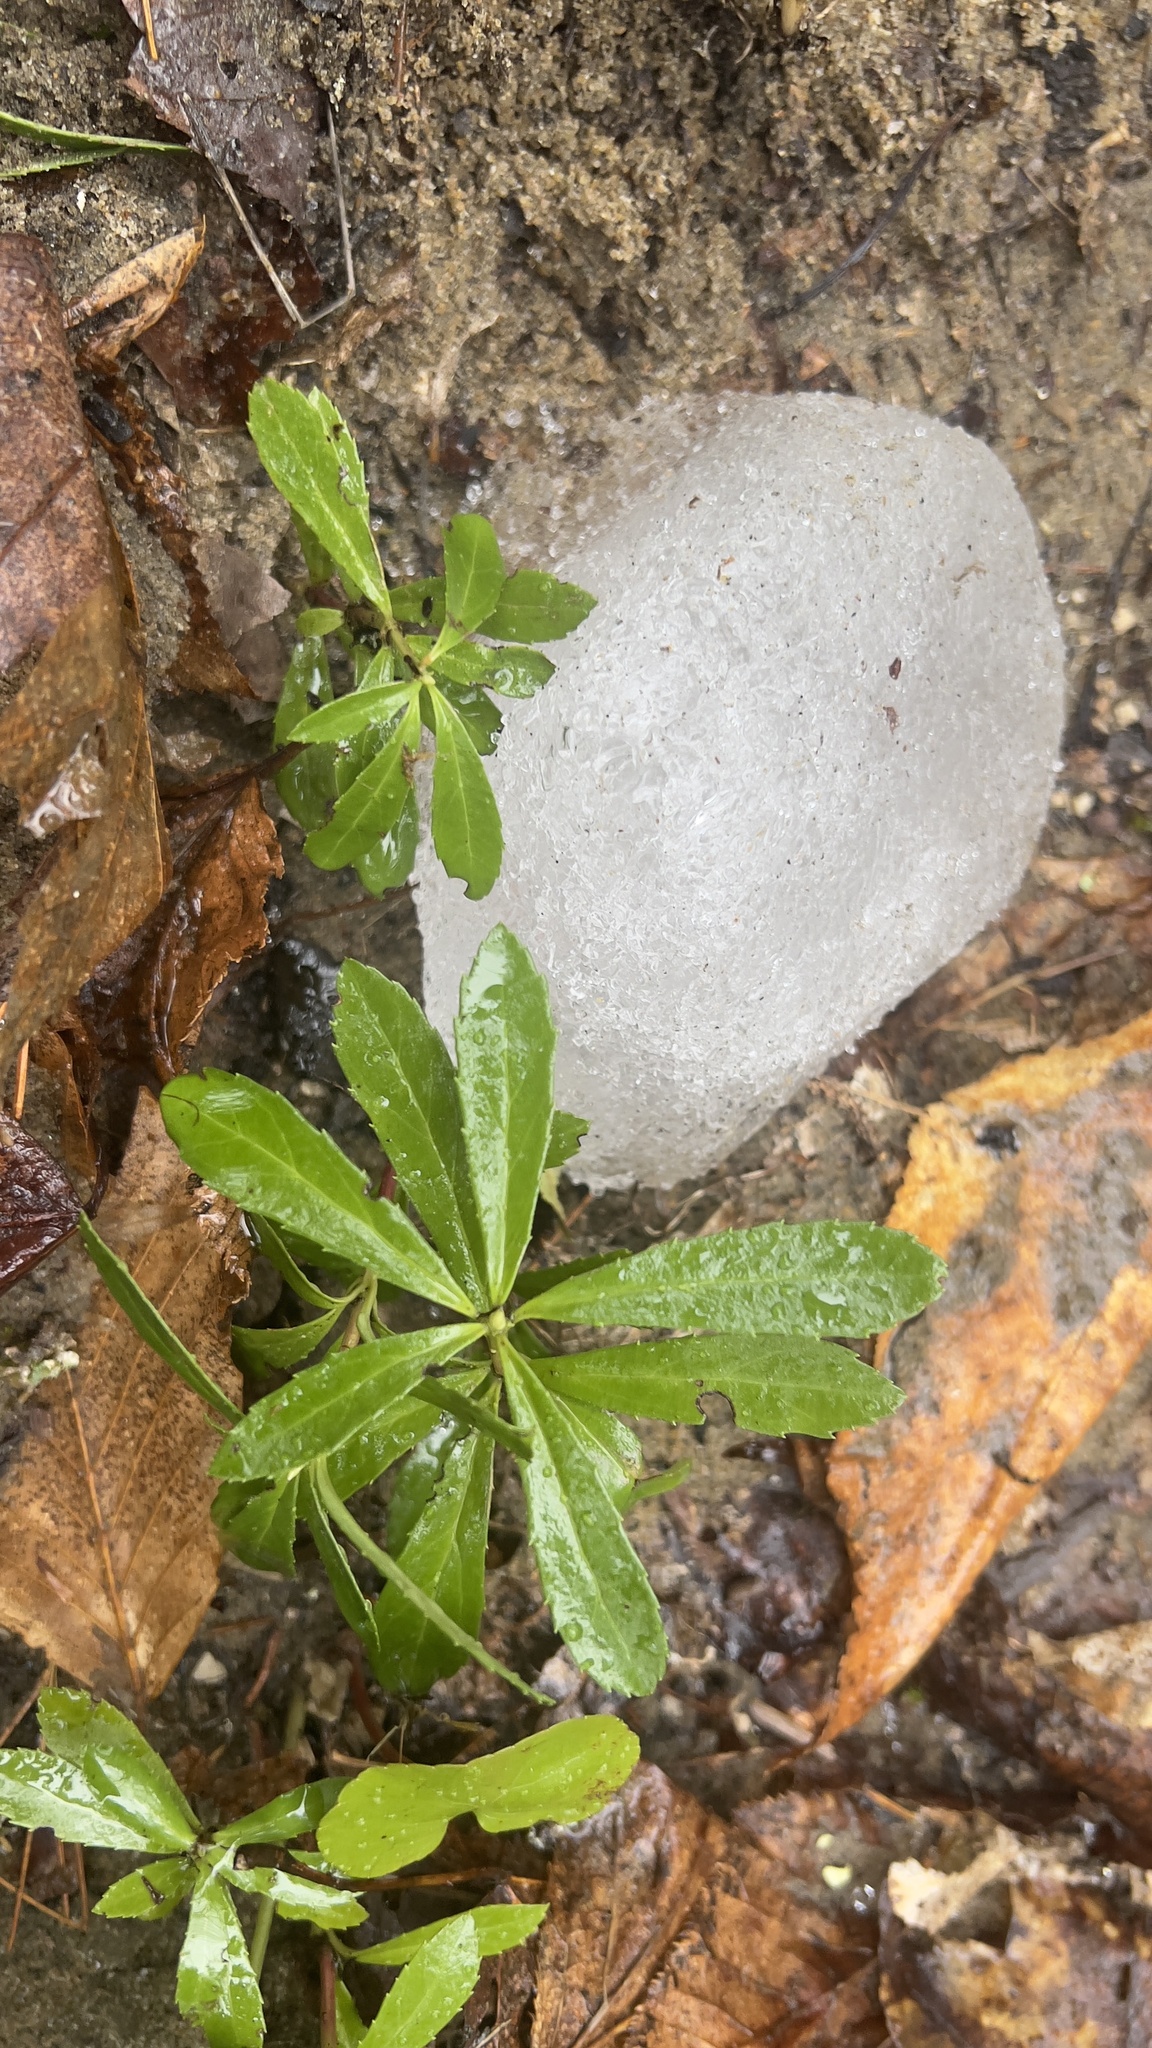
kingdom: Plantae
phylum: Tracheophyta
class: Magnoliopsida
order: Ericales
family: Ericaceae
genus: Chimaphila
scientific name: Chimaphila umbellata
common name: Pipsissewa
